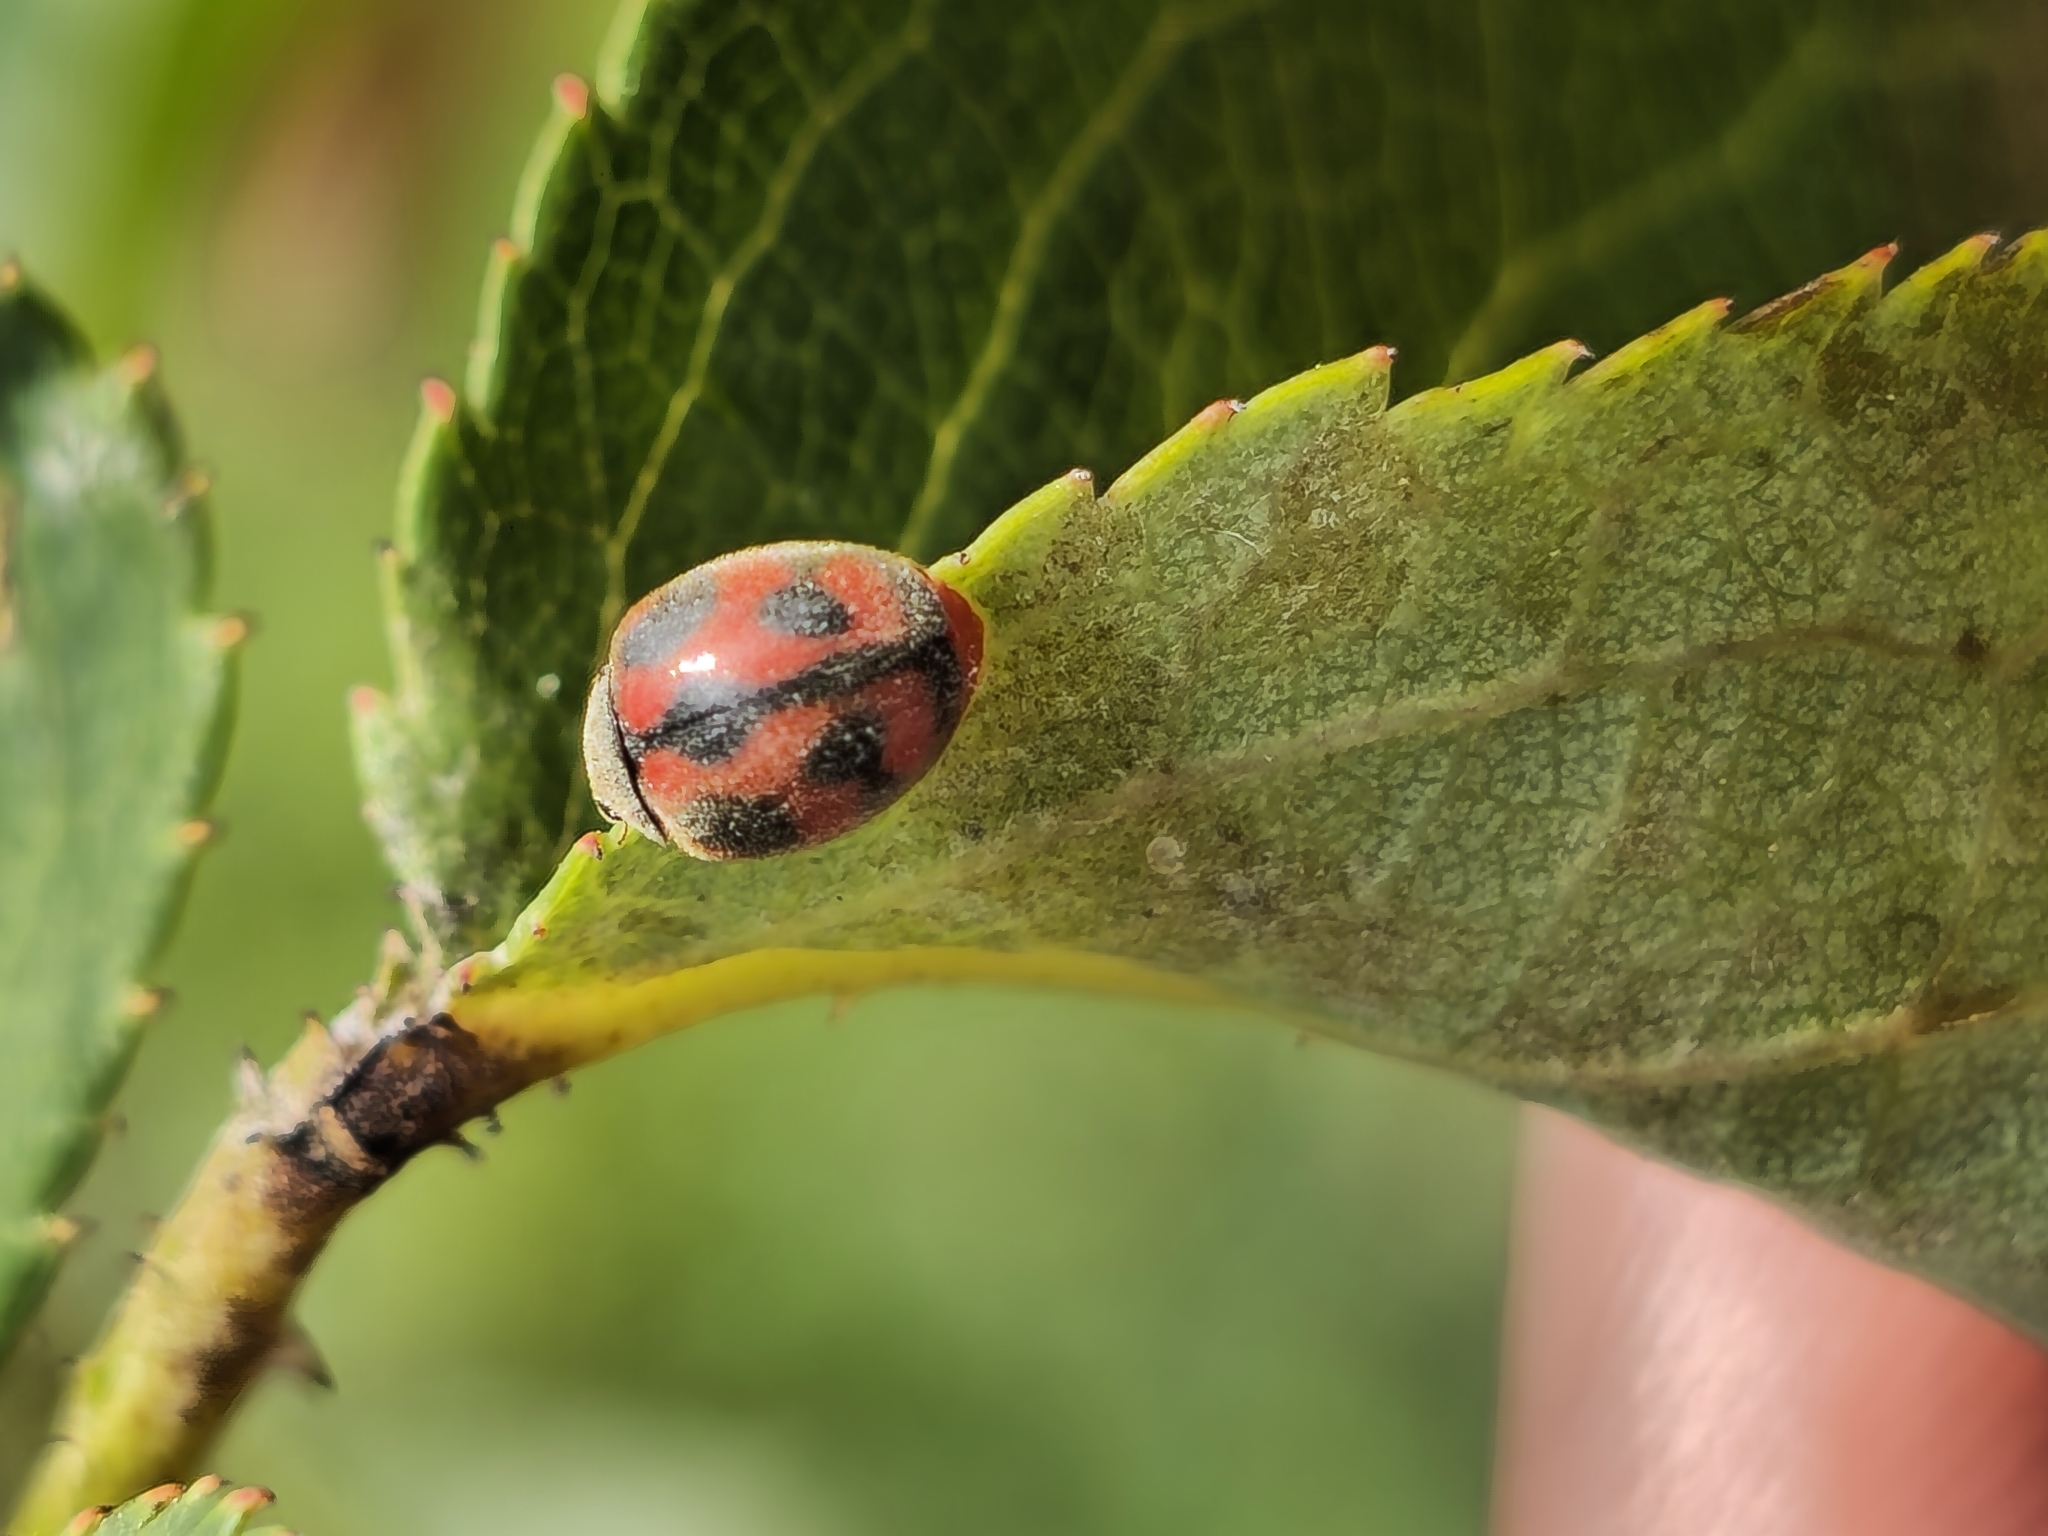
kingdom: Animalia
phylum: Arthropoda
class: Insecta
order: Coleoptera
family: Coccinellidae
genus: Novius
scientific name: Novius cardinalis
